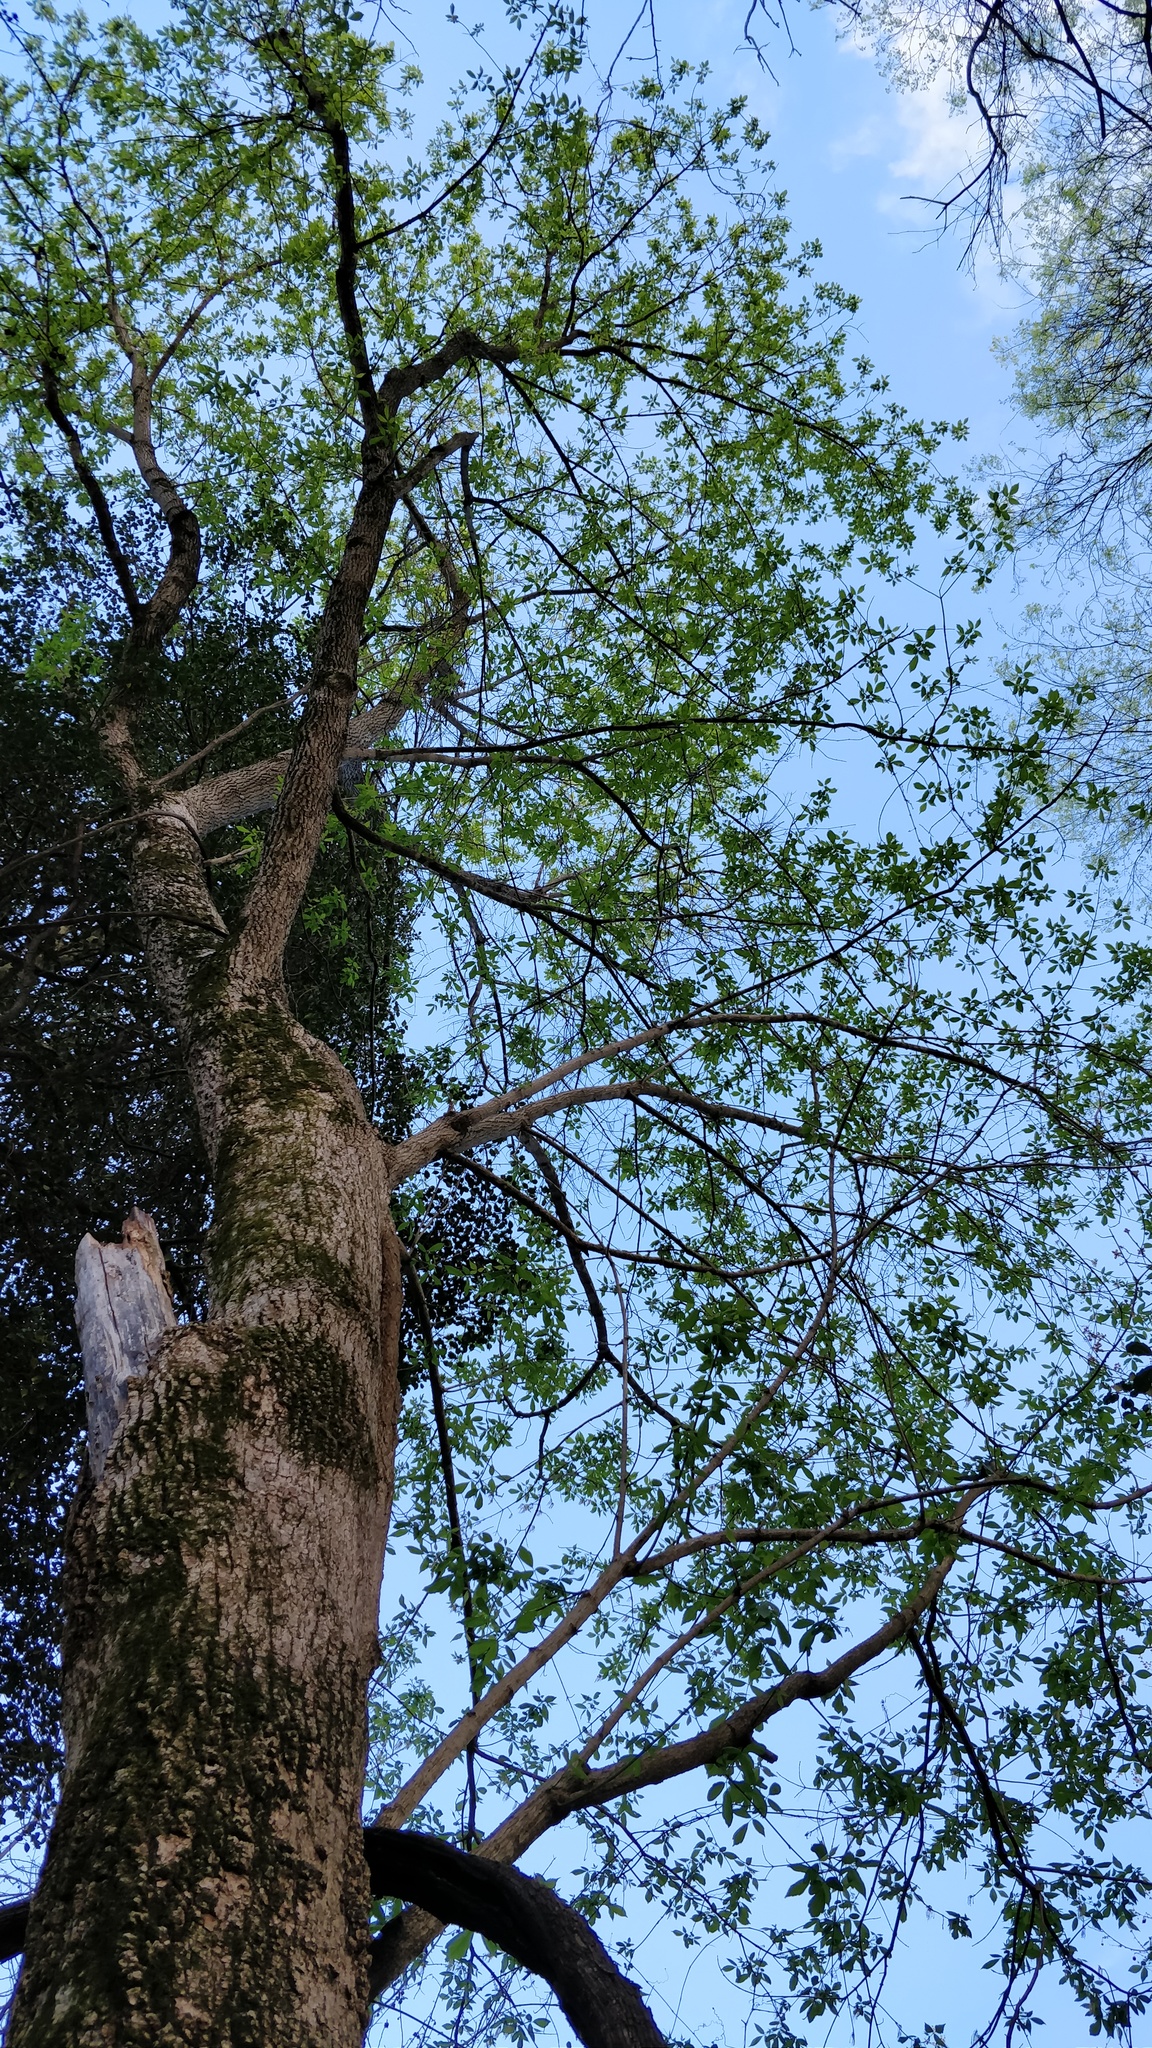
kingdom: Plantae
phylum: Tracheophyta
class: Magnoliopsida
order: Sapindales
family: Sapindaceae
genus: Acer
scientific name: Acer negundo
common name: Ashleaf maple
